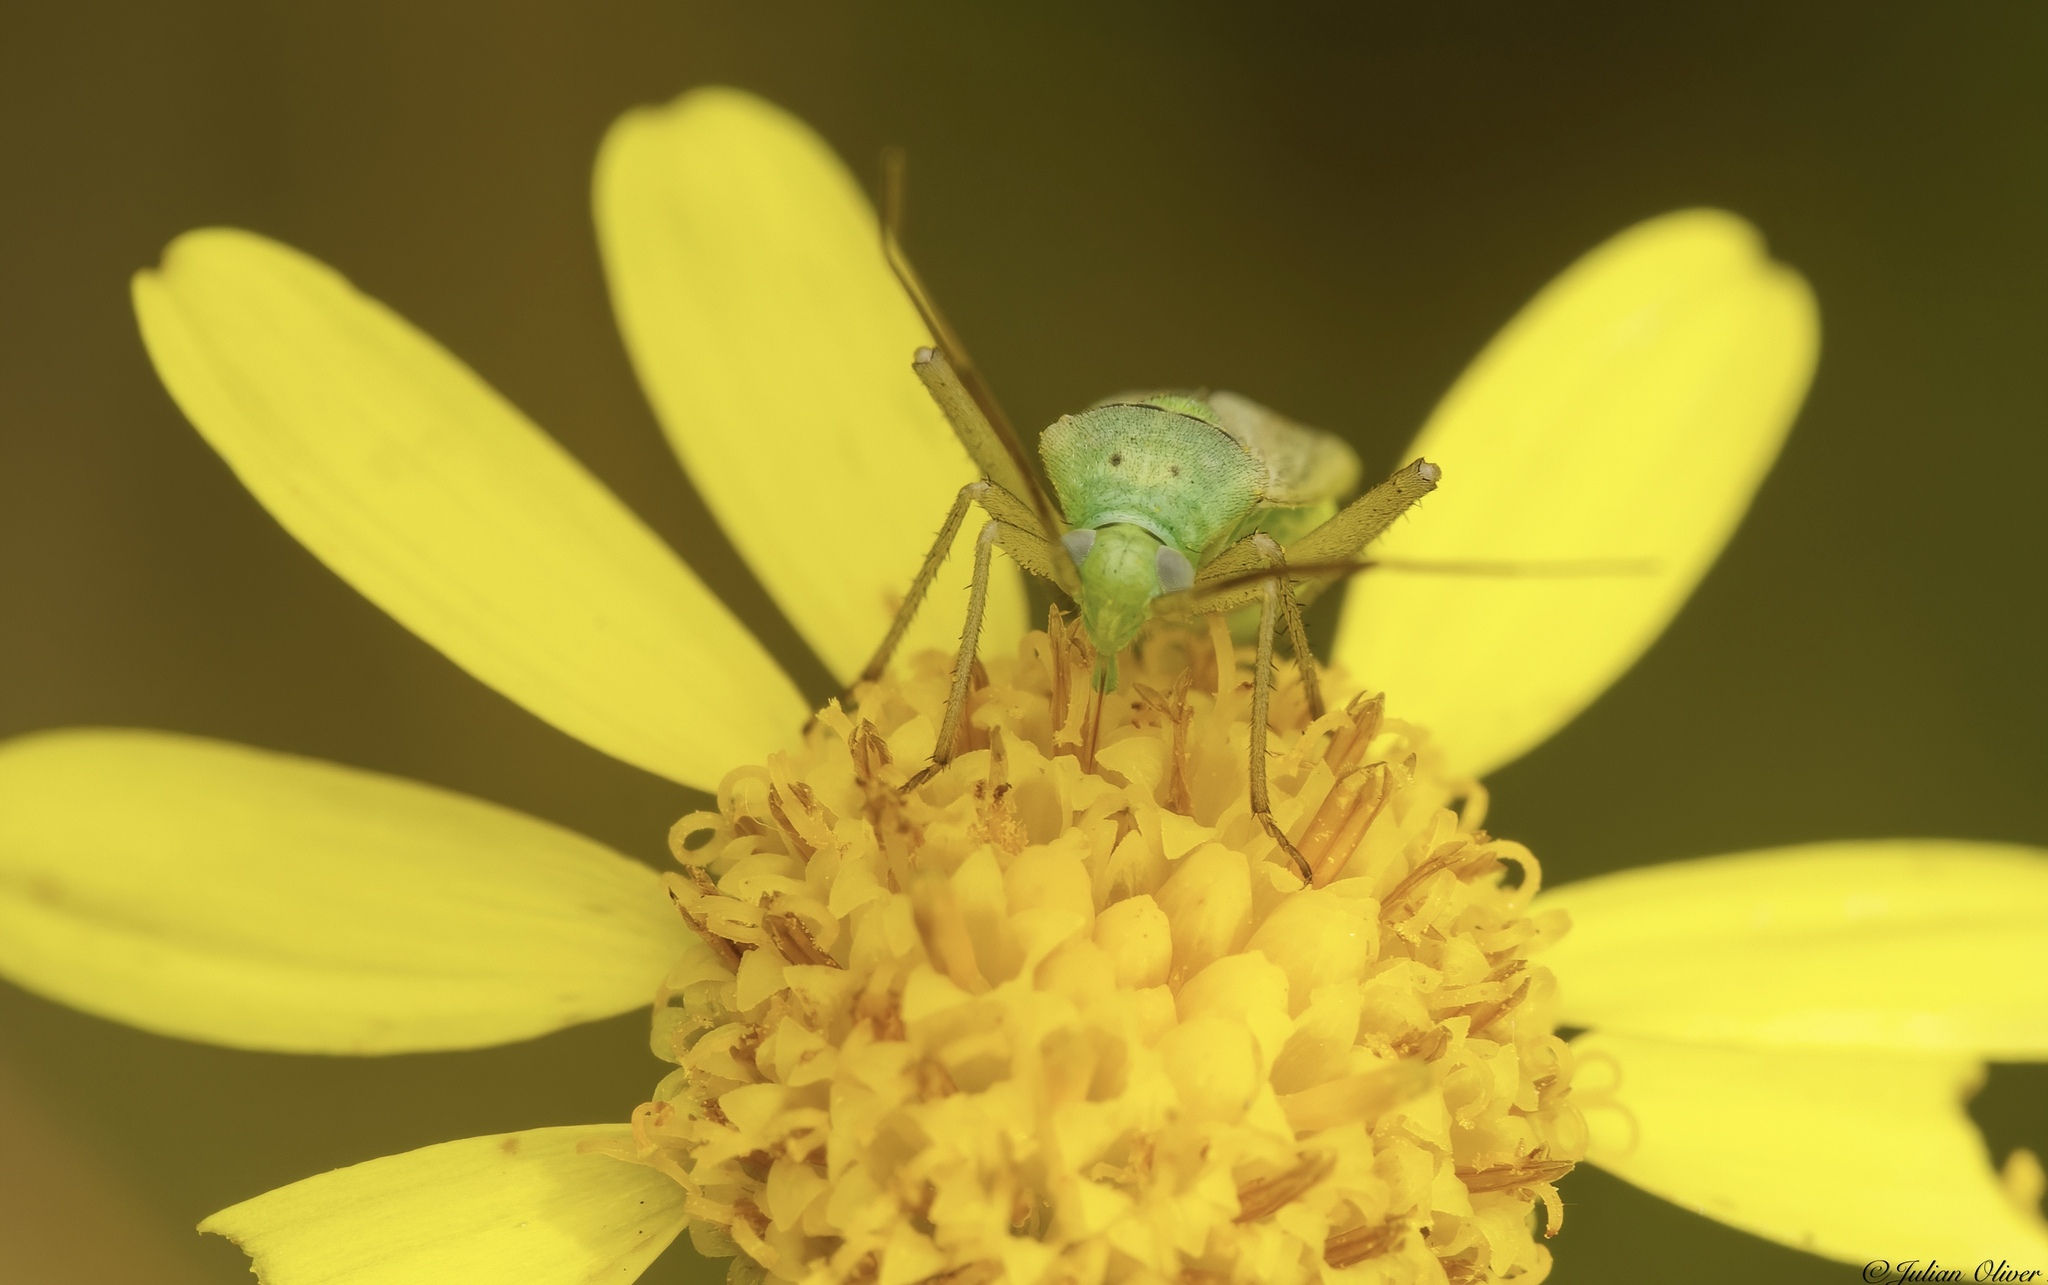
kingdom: Animalia
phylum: Arthropoda
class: Insecta
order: Hemiptera
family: Miridae
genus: Closterotomus
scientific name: Closterotomus norvegicus
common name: Plant bug
